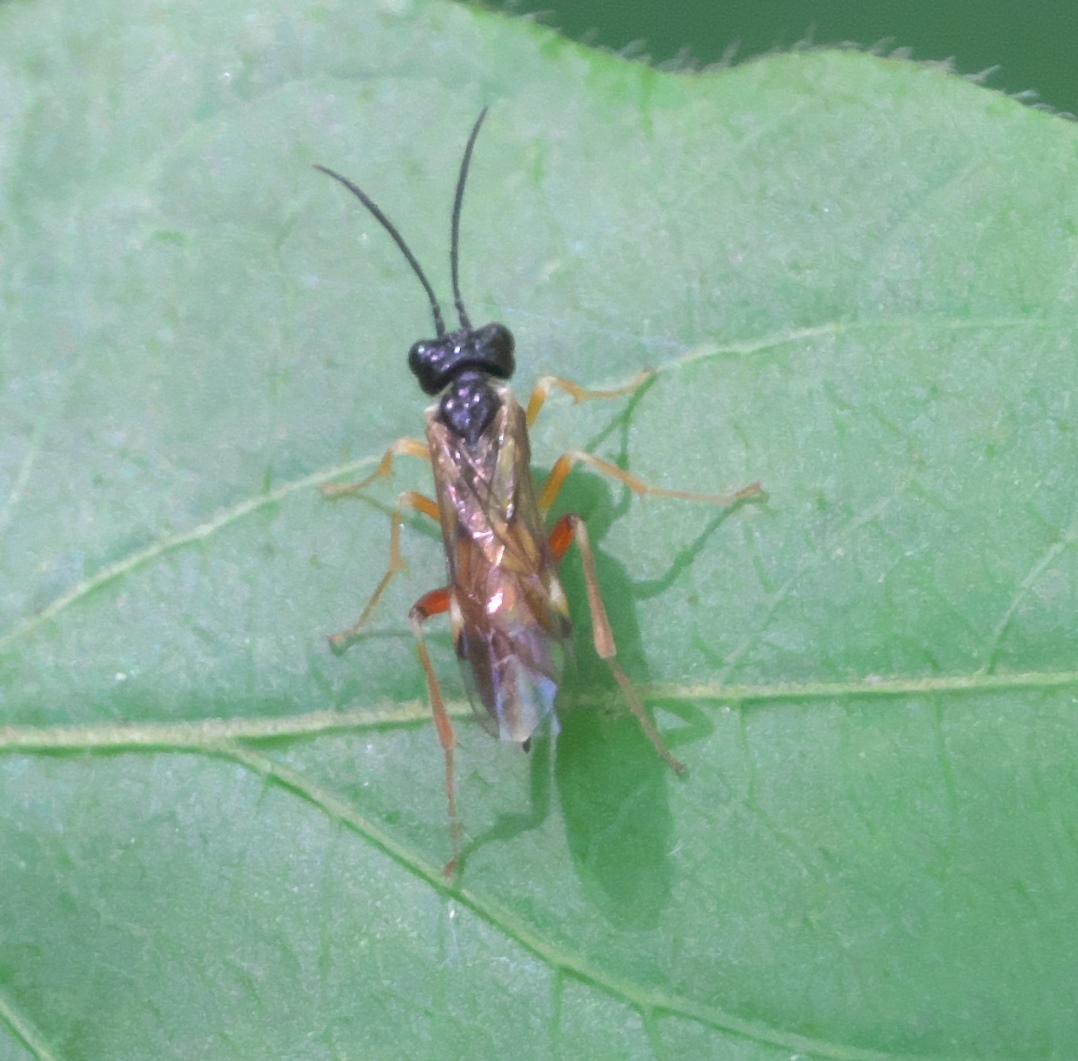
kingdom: Animalia
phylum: Arthropoda
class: Insecta
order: Hymenoptera
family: Tenthredinidae
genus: Taxonus
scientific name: Taxonus pallicoxus
